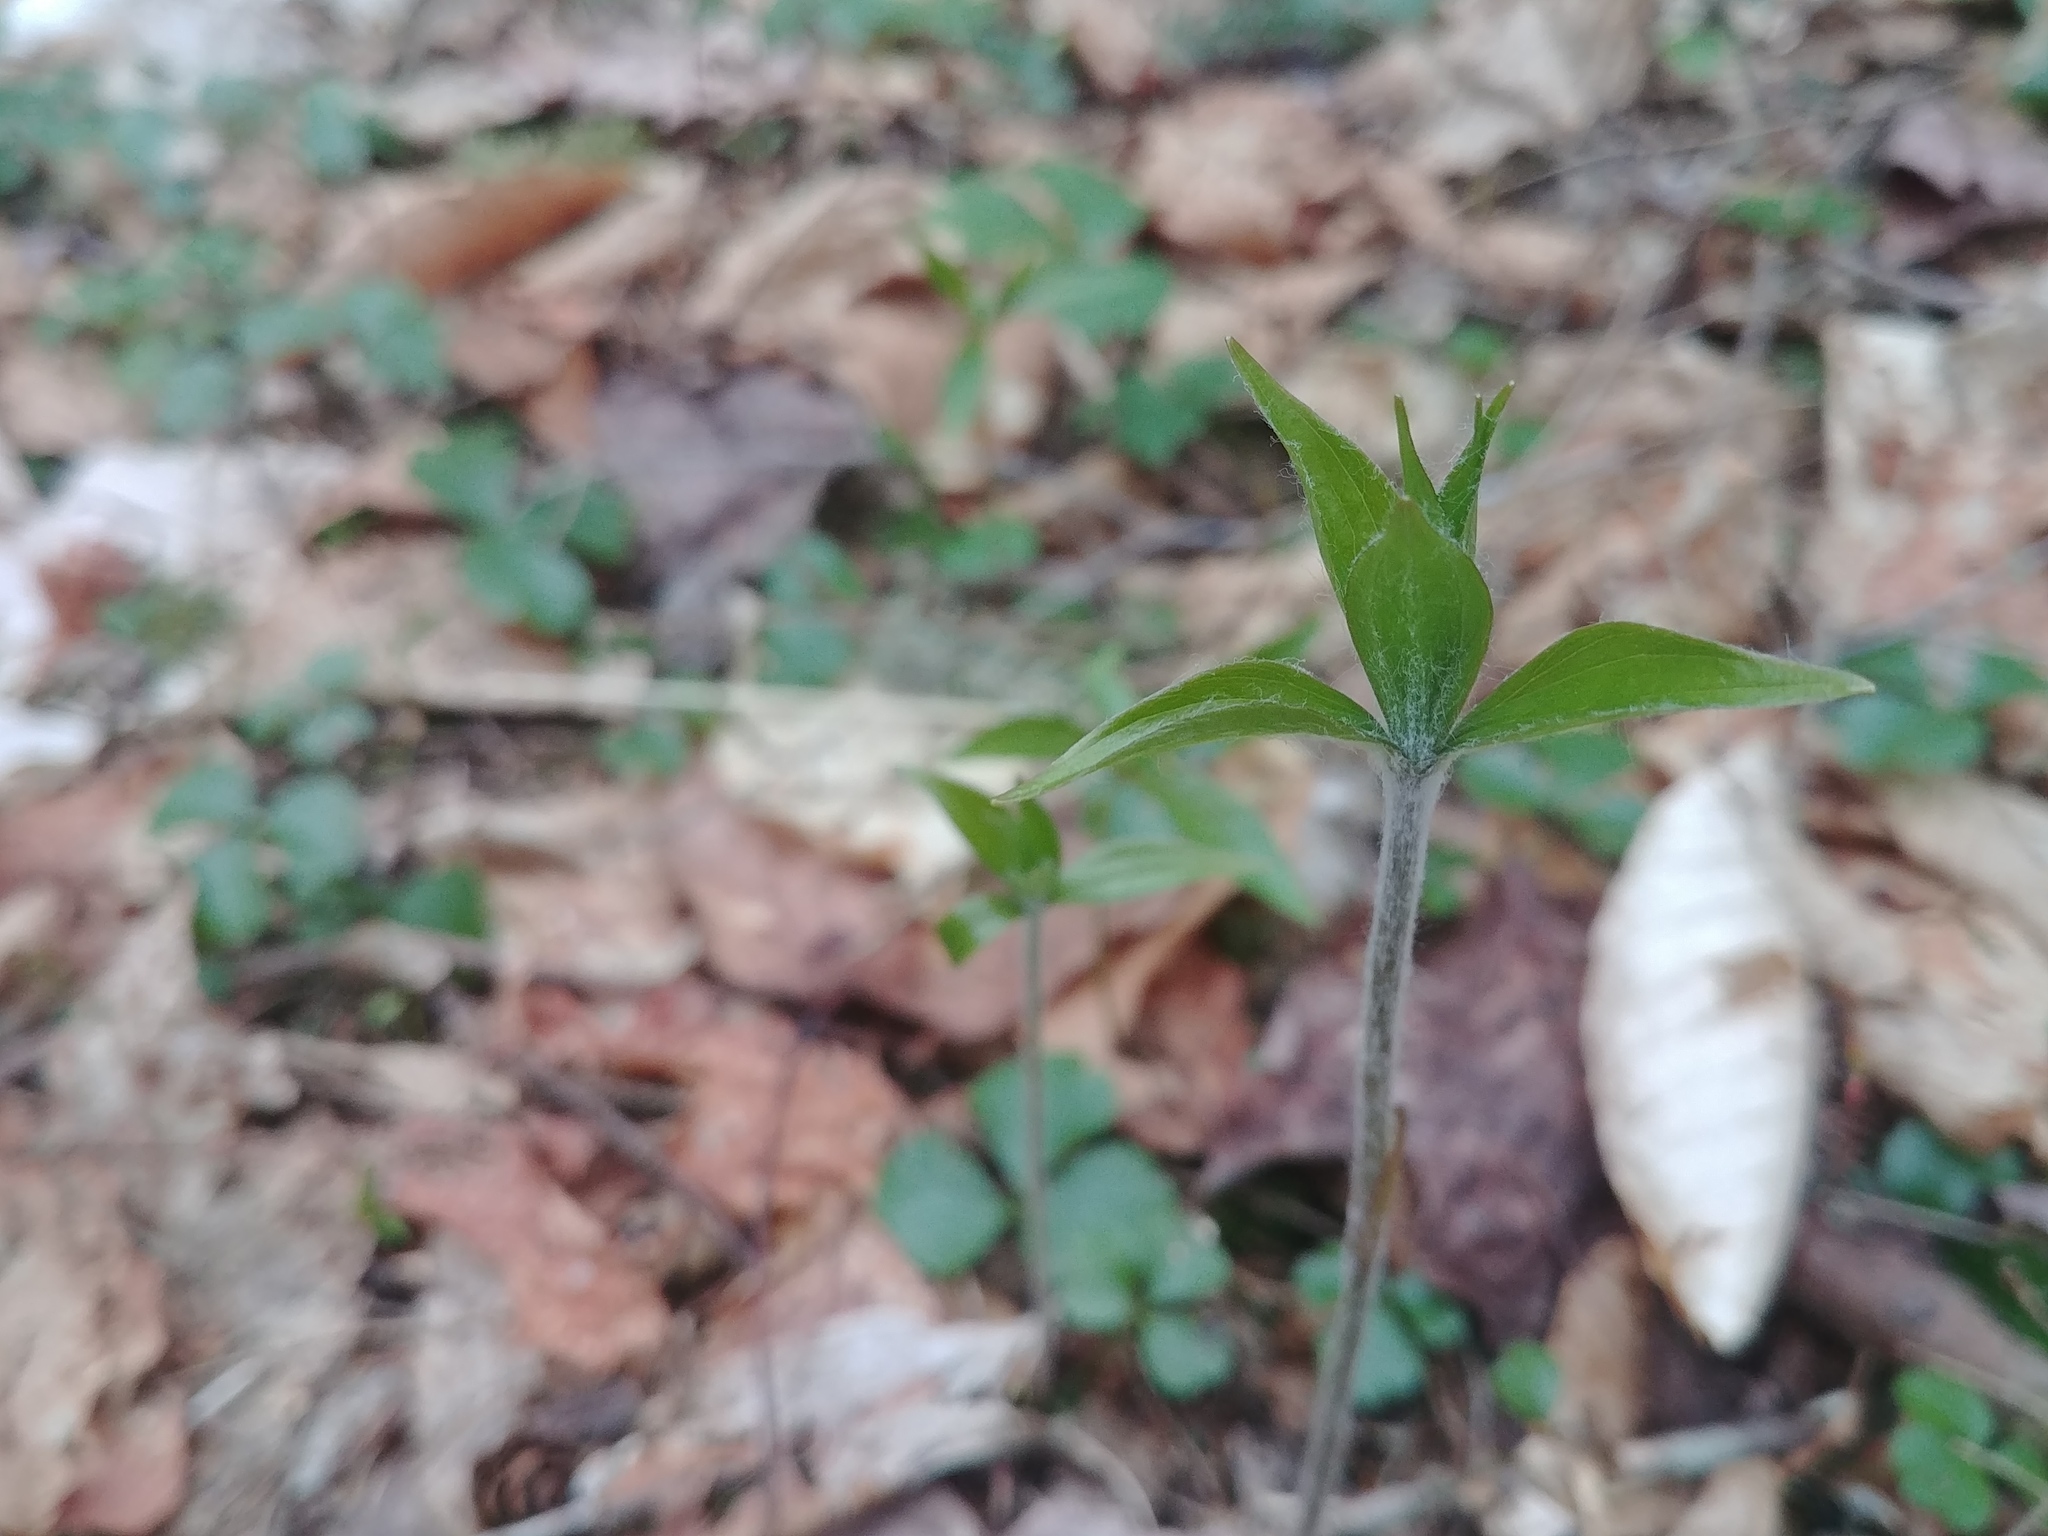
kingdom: Plantae
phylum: Tracheophyta
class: Liliopsida
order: Liliales
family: Liliaceae
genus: Medeola
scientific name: Medeola virginiana
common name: Indian cucumber-root
